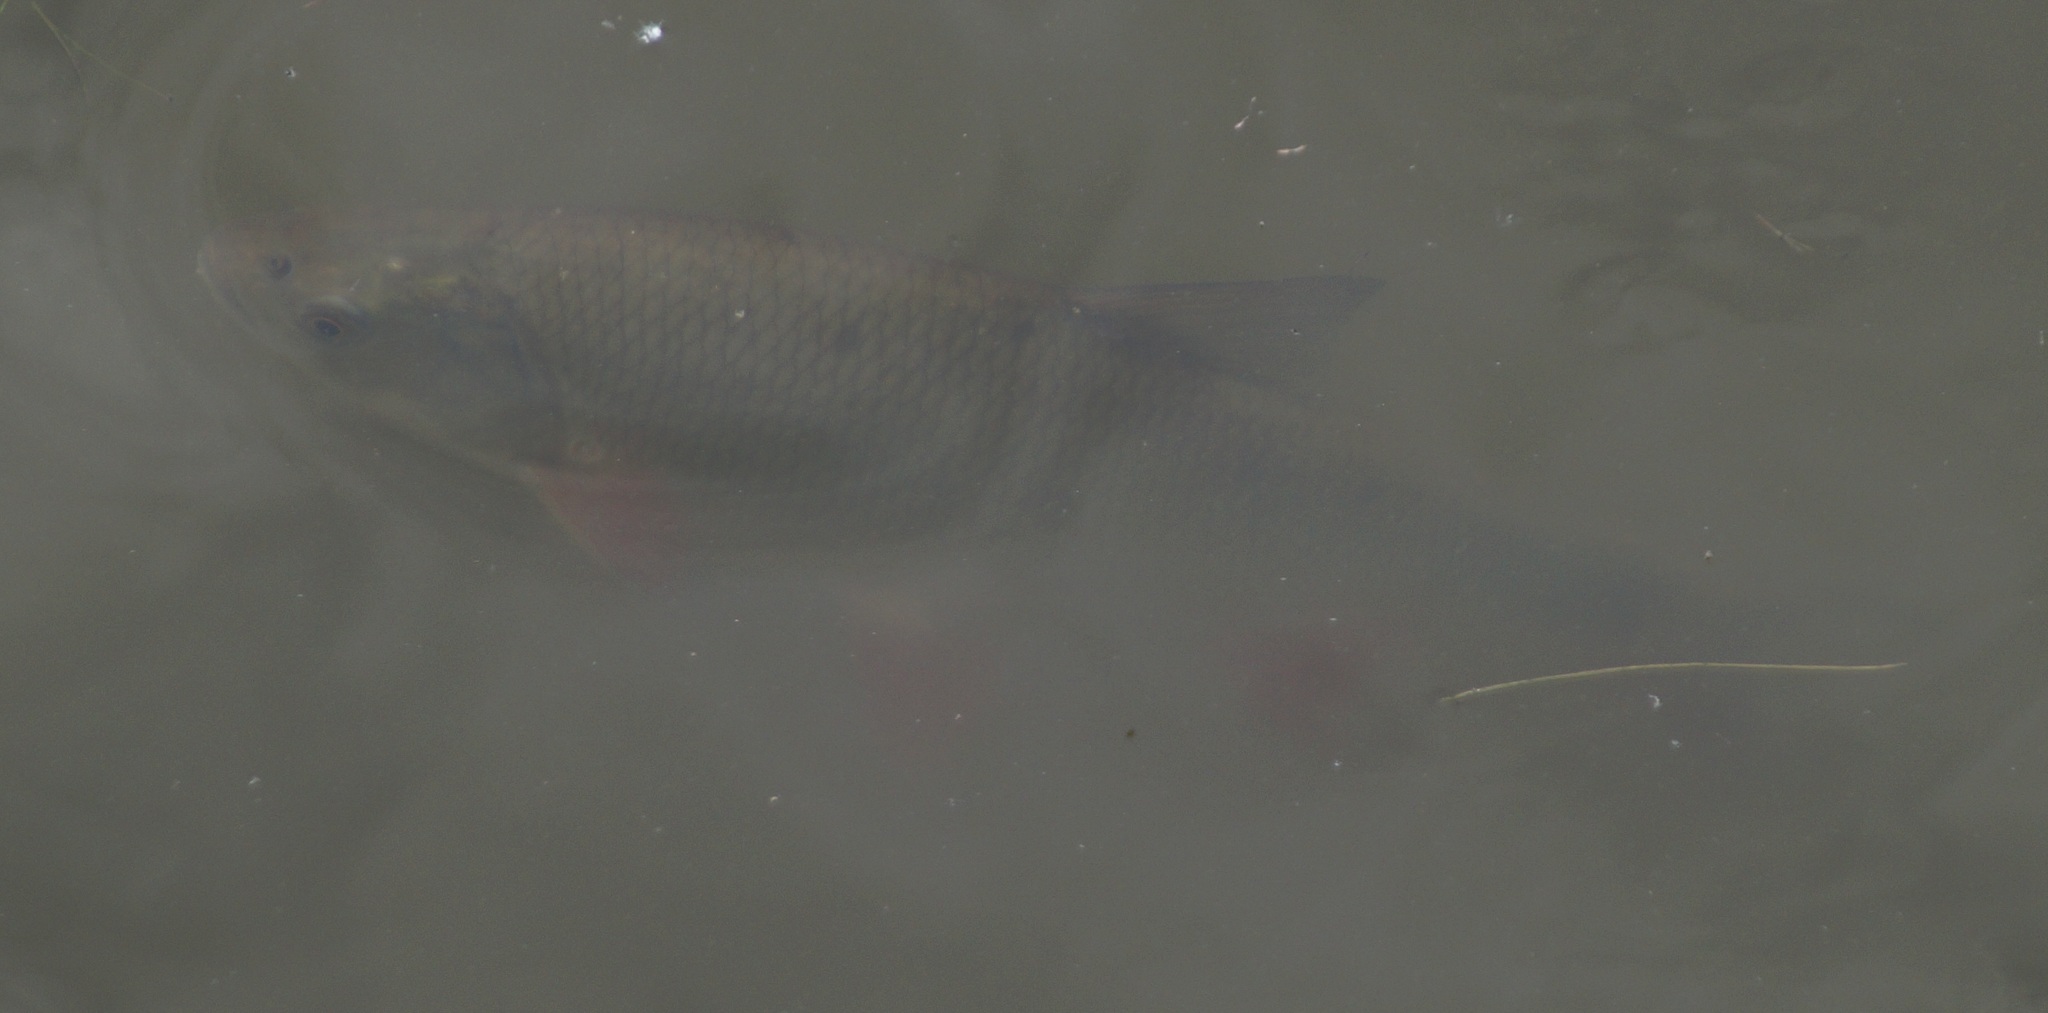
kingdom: Animalia
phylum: Chordata
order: Cypriniformes
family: Cyprinidae
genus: Leuciscus
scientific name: Leuciscus idus
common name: Ide
